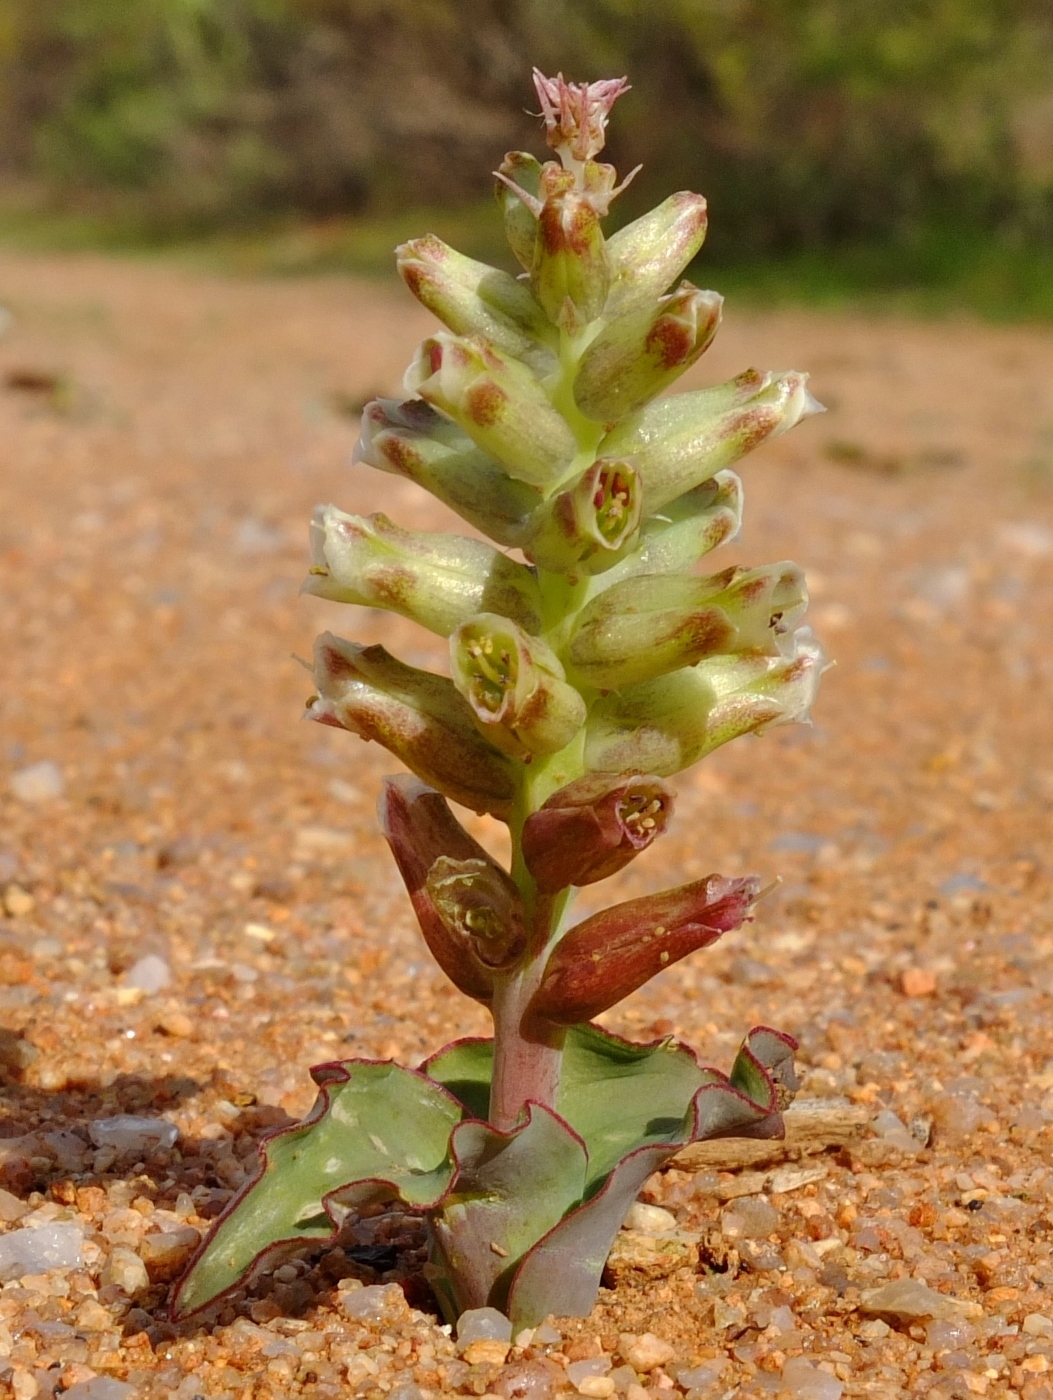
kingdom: Plantae
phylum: Tracheophyta
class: Liliopsida
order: Asparagales
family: Asparagaceae
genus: Lachenalia
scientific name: Lachenalia undulata
